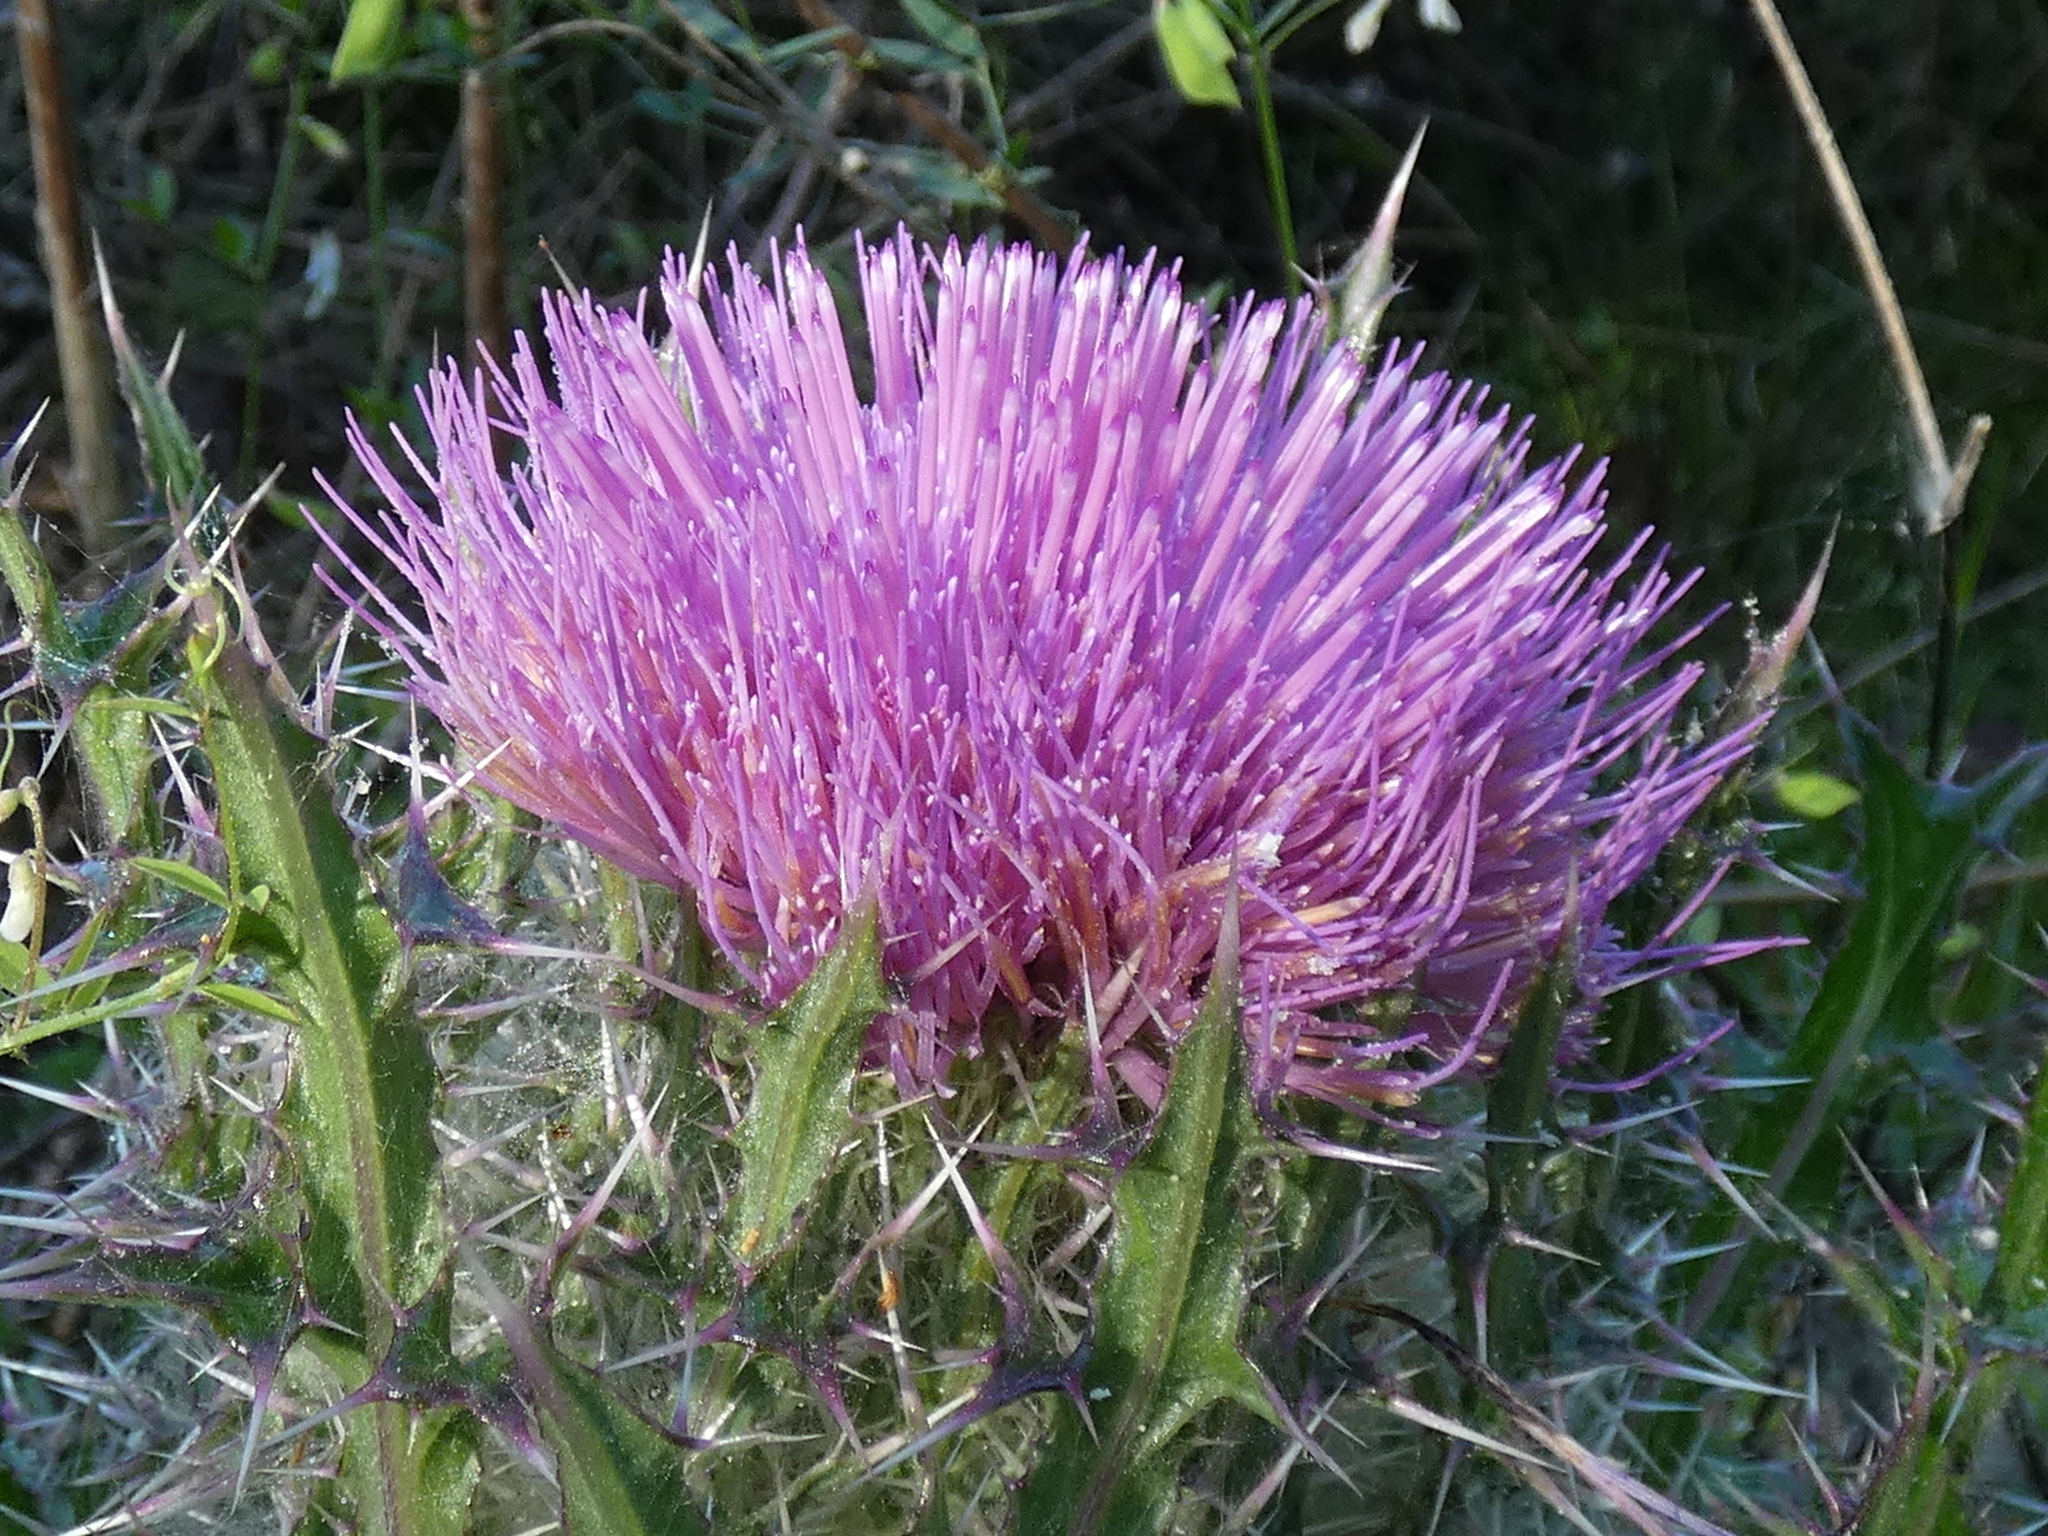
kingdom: Plantae
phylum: Tracheophyta
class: Magnoliopsida
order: Asterales
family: Asteraceae
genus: Cirsium
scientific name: Cirsium horridulum
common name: Bristly thistle
